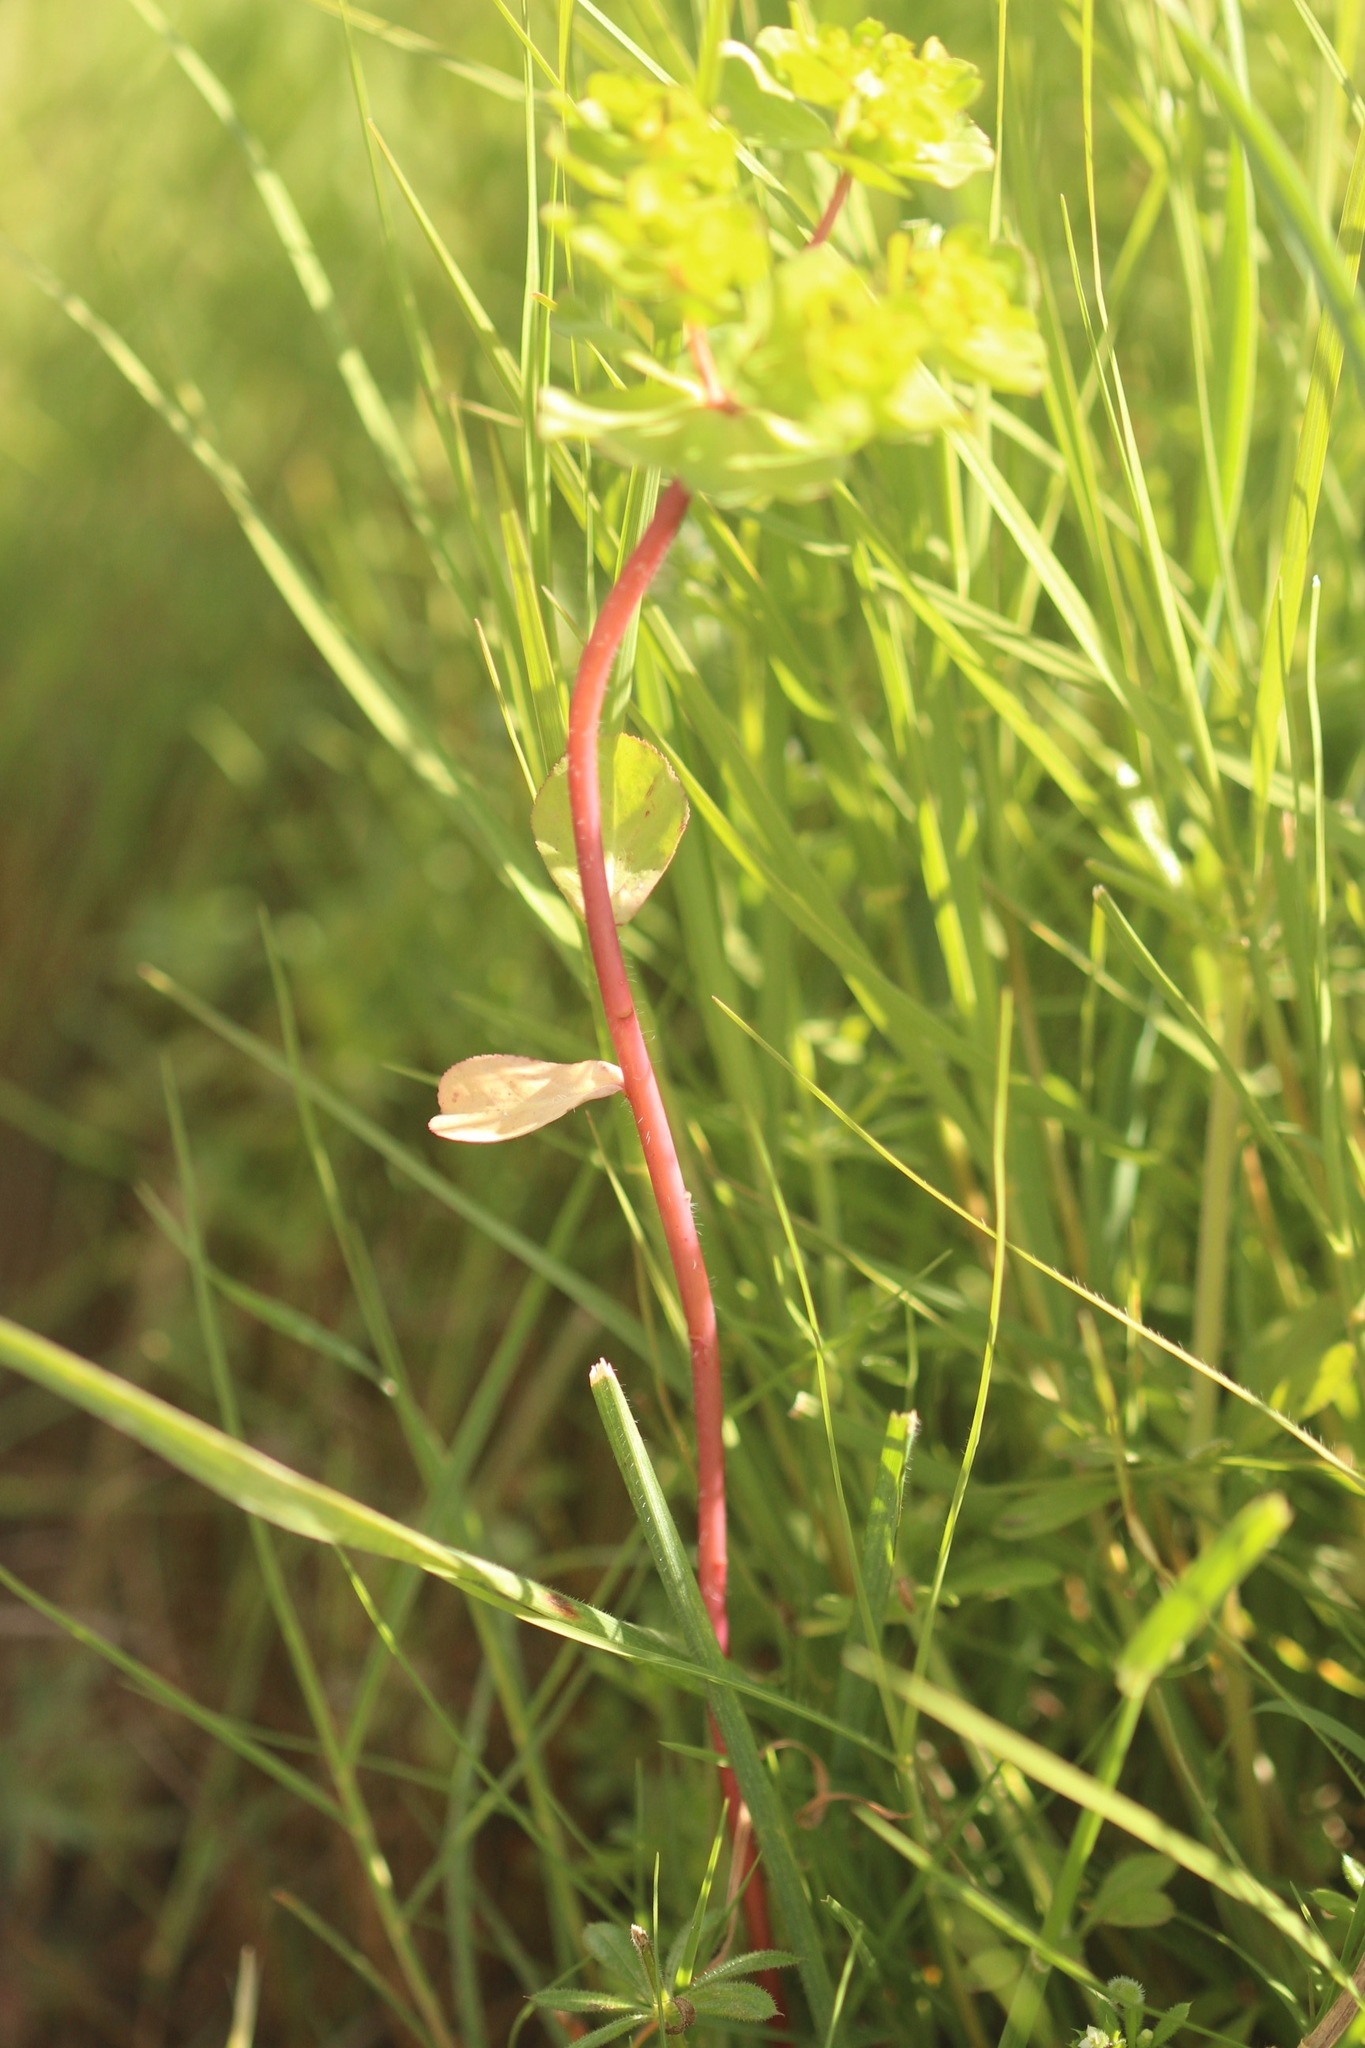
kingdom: Plantae
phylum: Tracheophyta
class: Magnoliopsida
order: Malpighiales
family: Euphorbiaceae
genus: Euphorbia
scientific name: Euphorbia helioscopia
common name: Sun spurge
